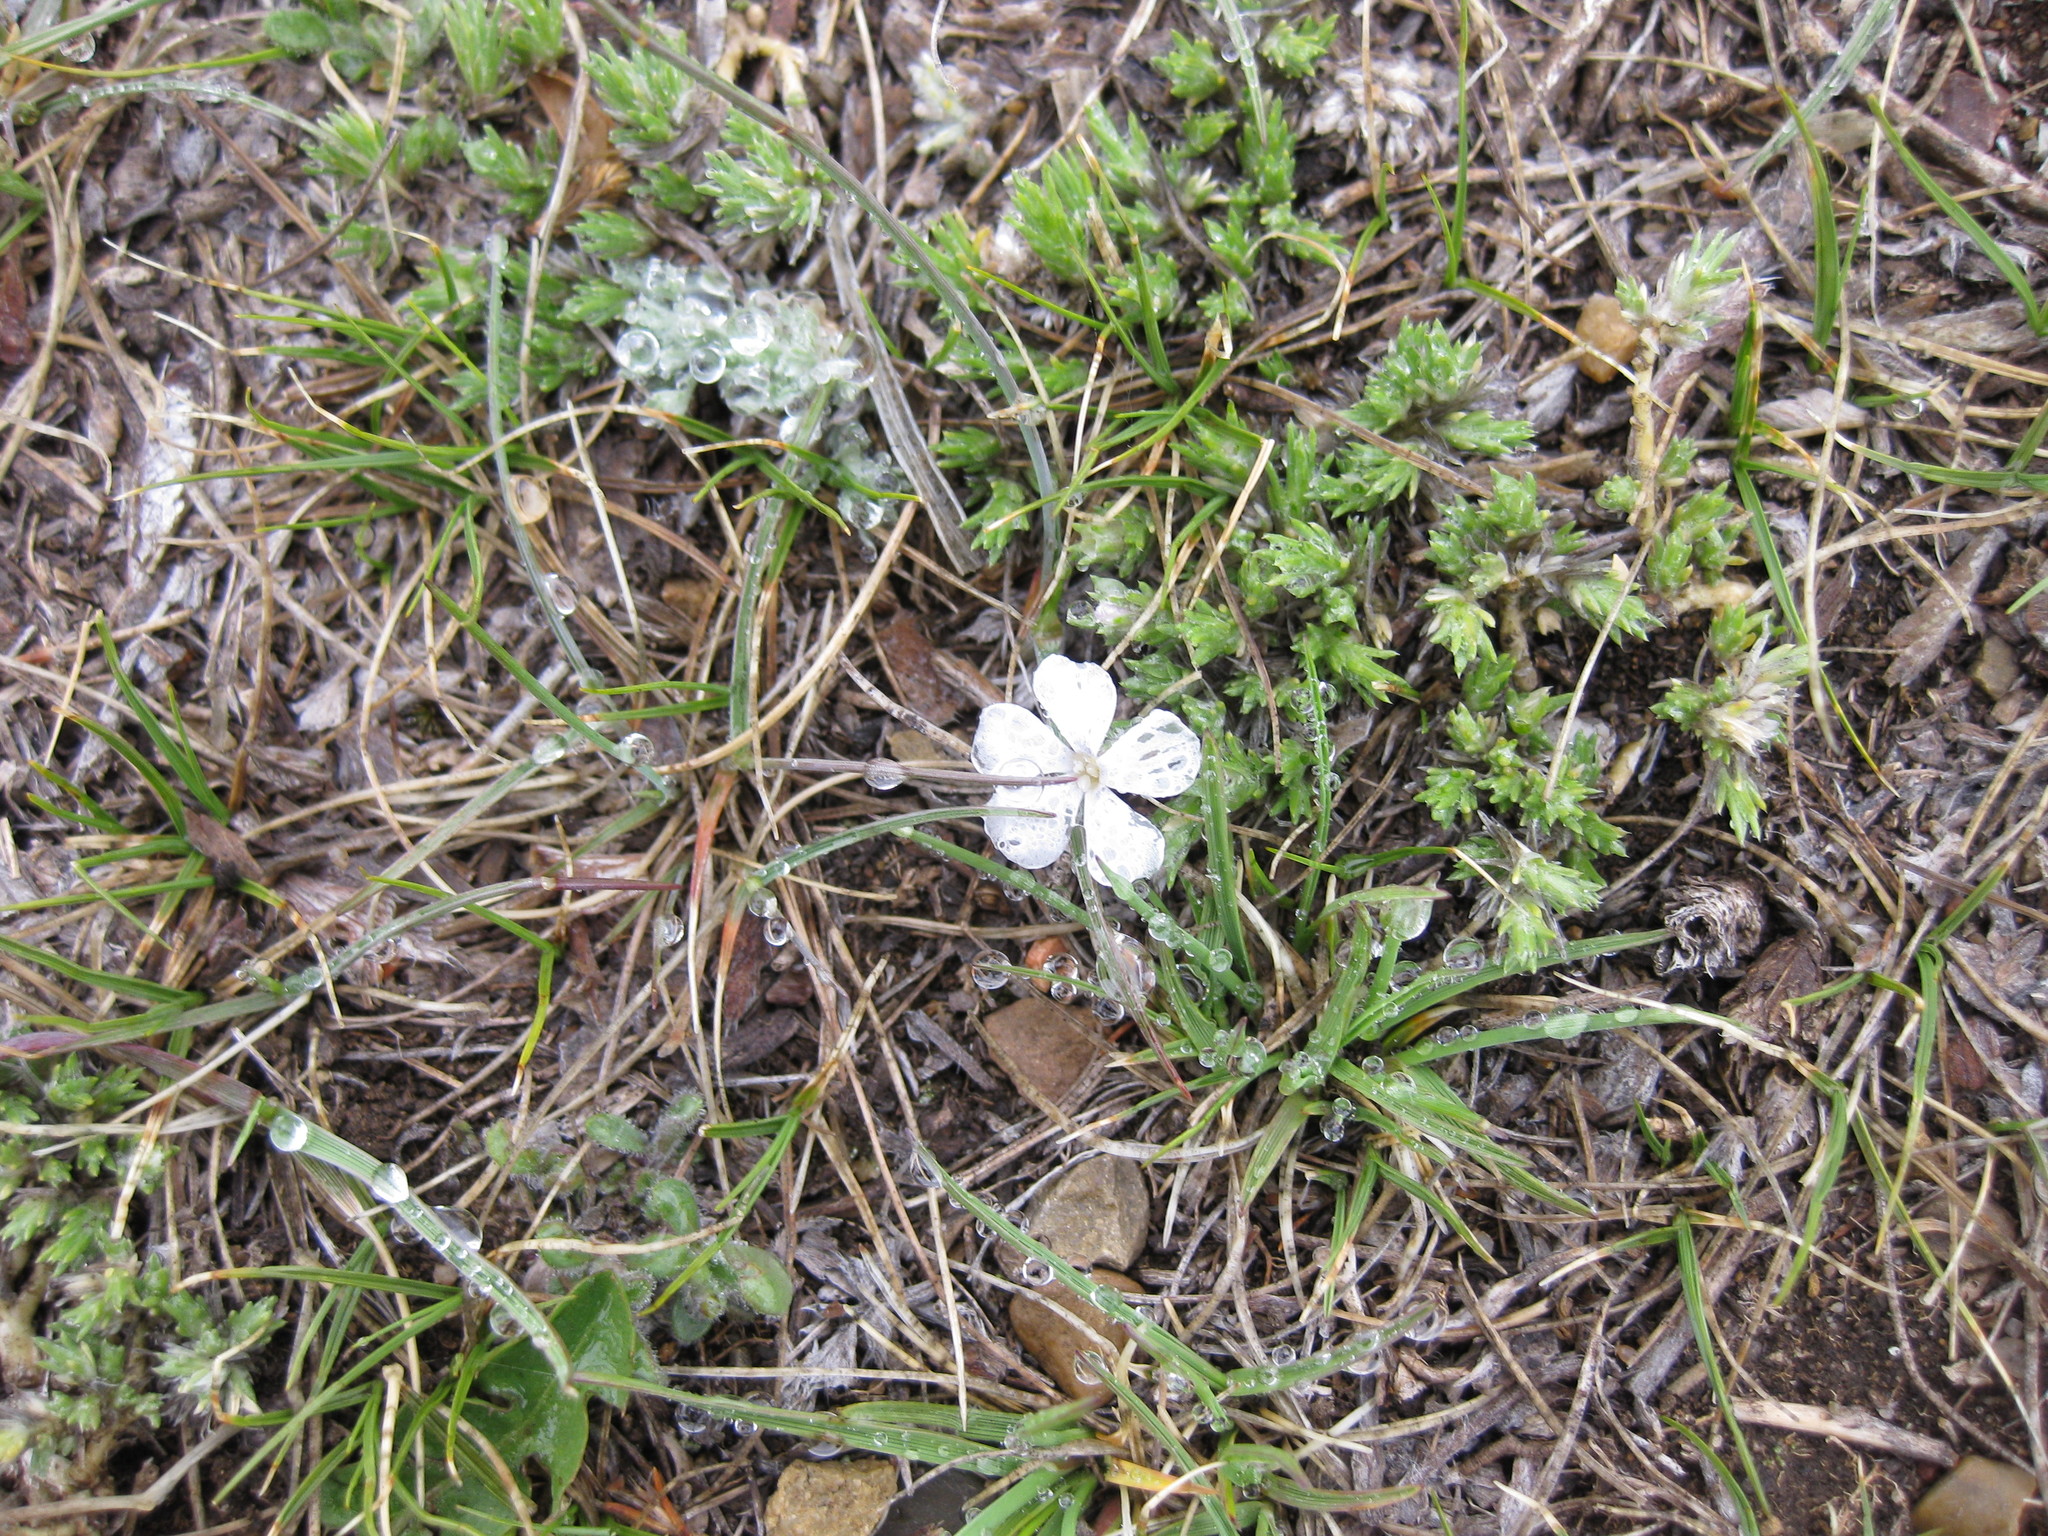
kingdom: Plantae
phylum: Tracheophyta
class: Magnoliopsida
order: Ericales
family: Polemoniaceae
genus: Phlox
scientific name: Phlox hoodii
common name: Moss phlox
